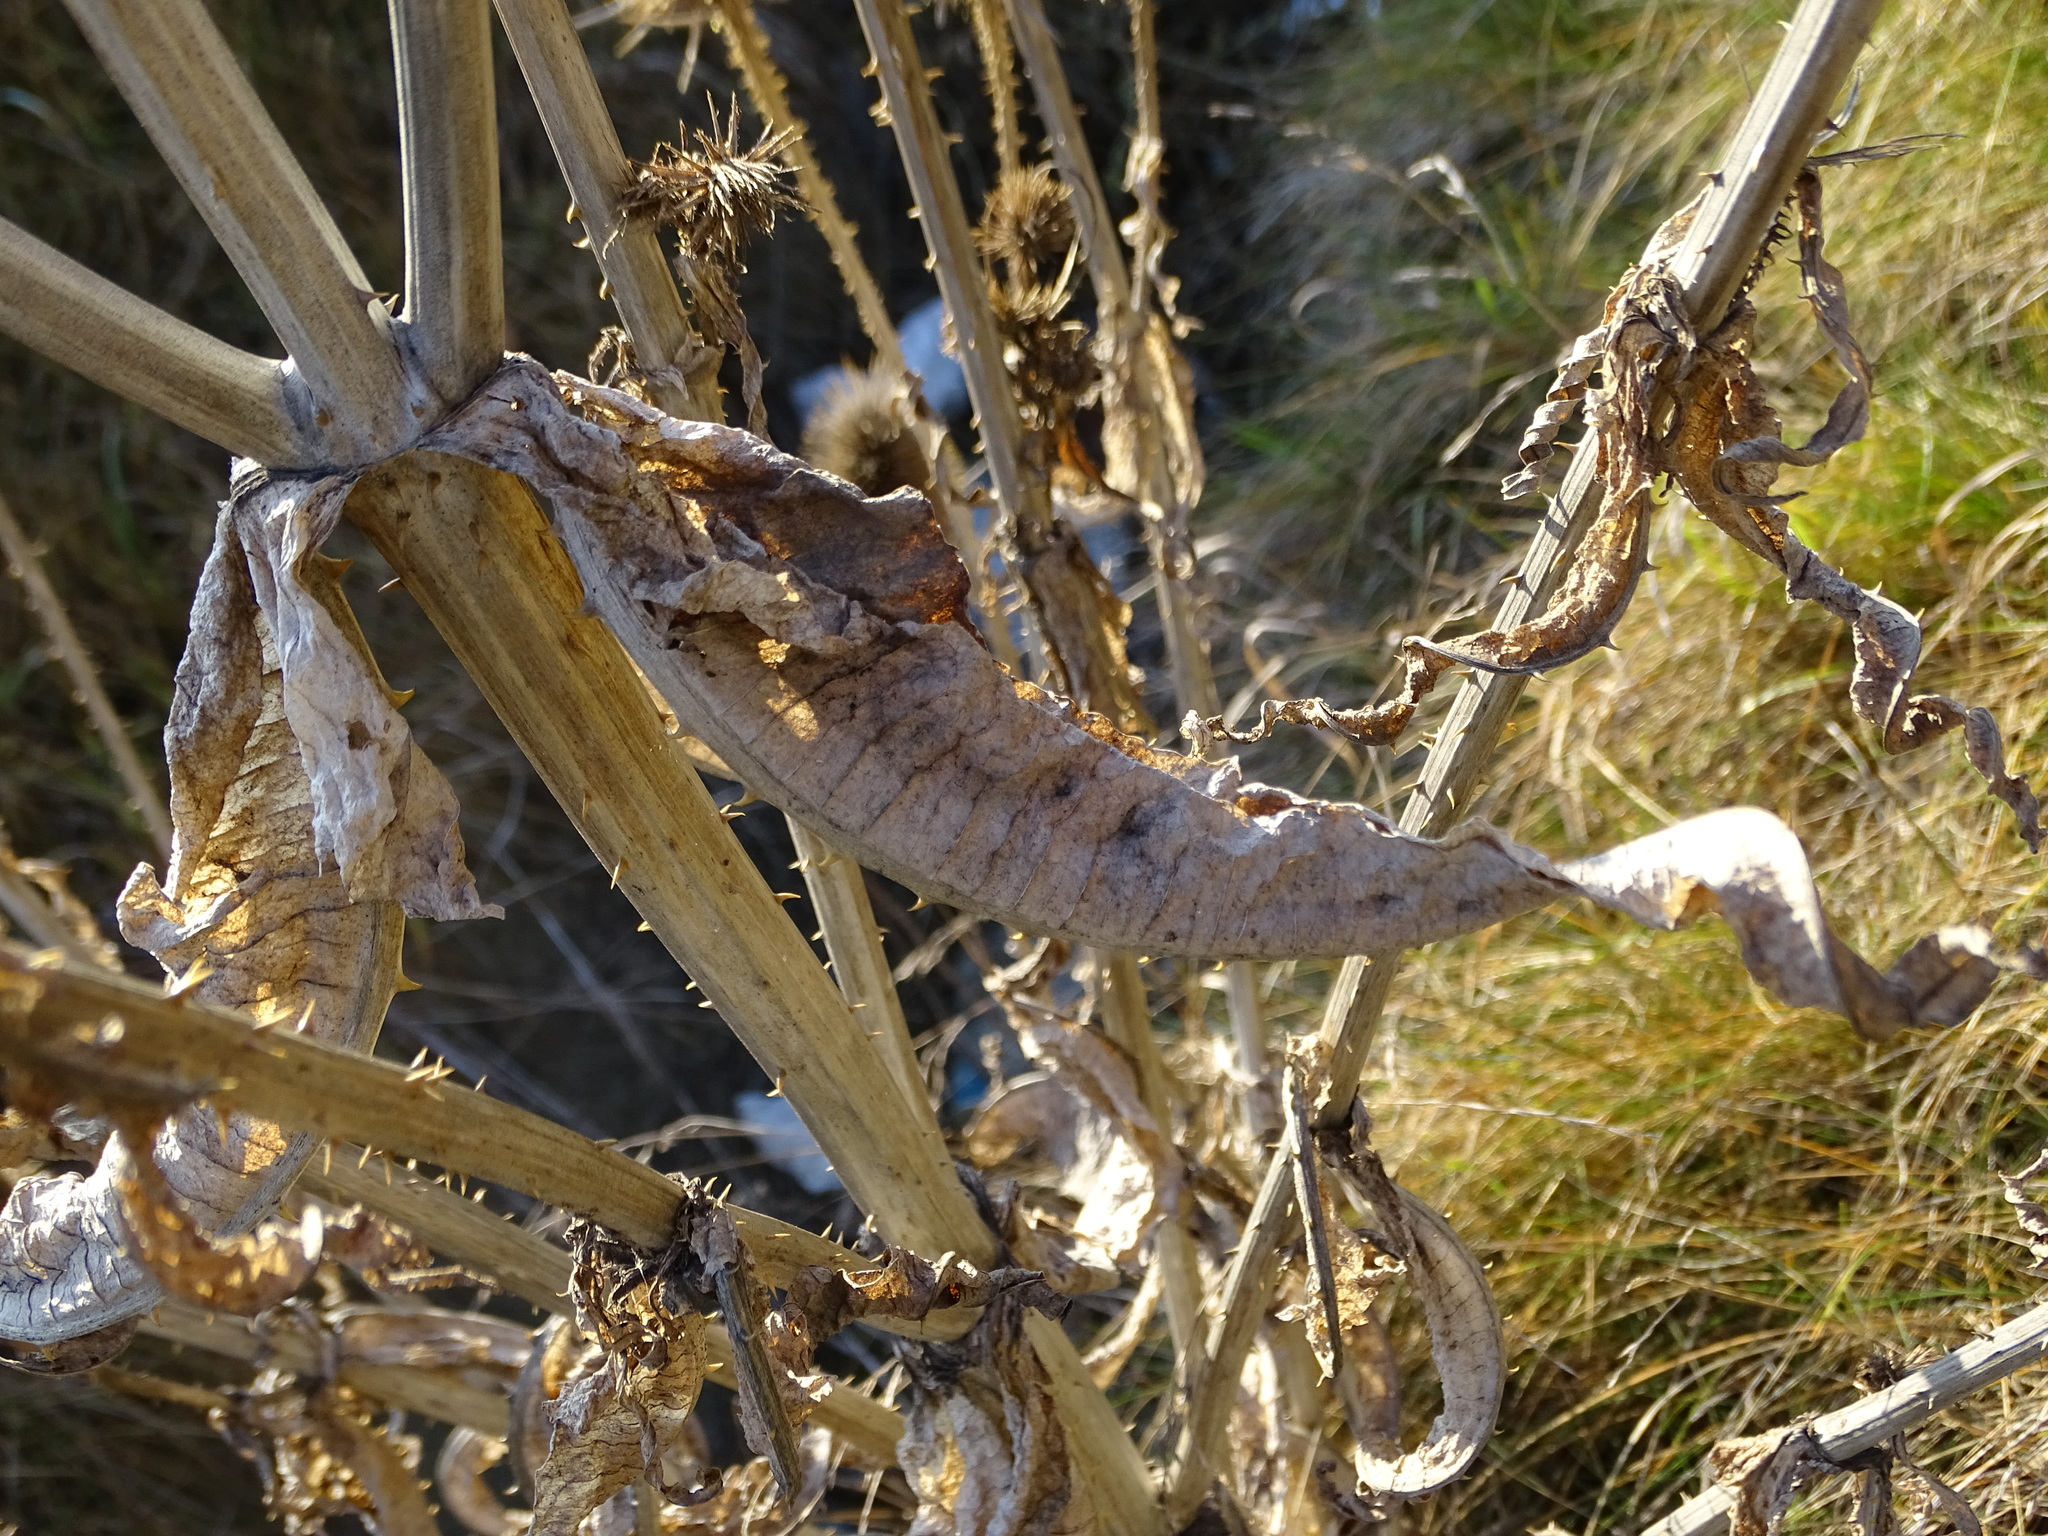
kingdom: Plantae
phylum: Tracheophyta
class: Magnoliopsida
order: Dipsacales
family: Caprifoliaceae
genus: Dipsacus
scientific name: Dipsacus fullonum
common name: Teasel
